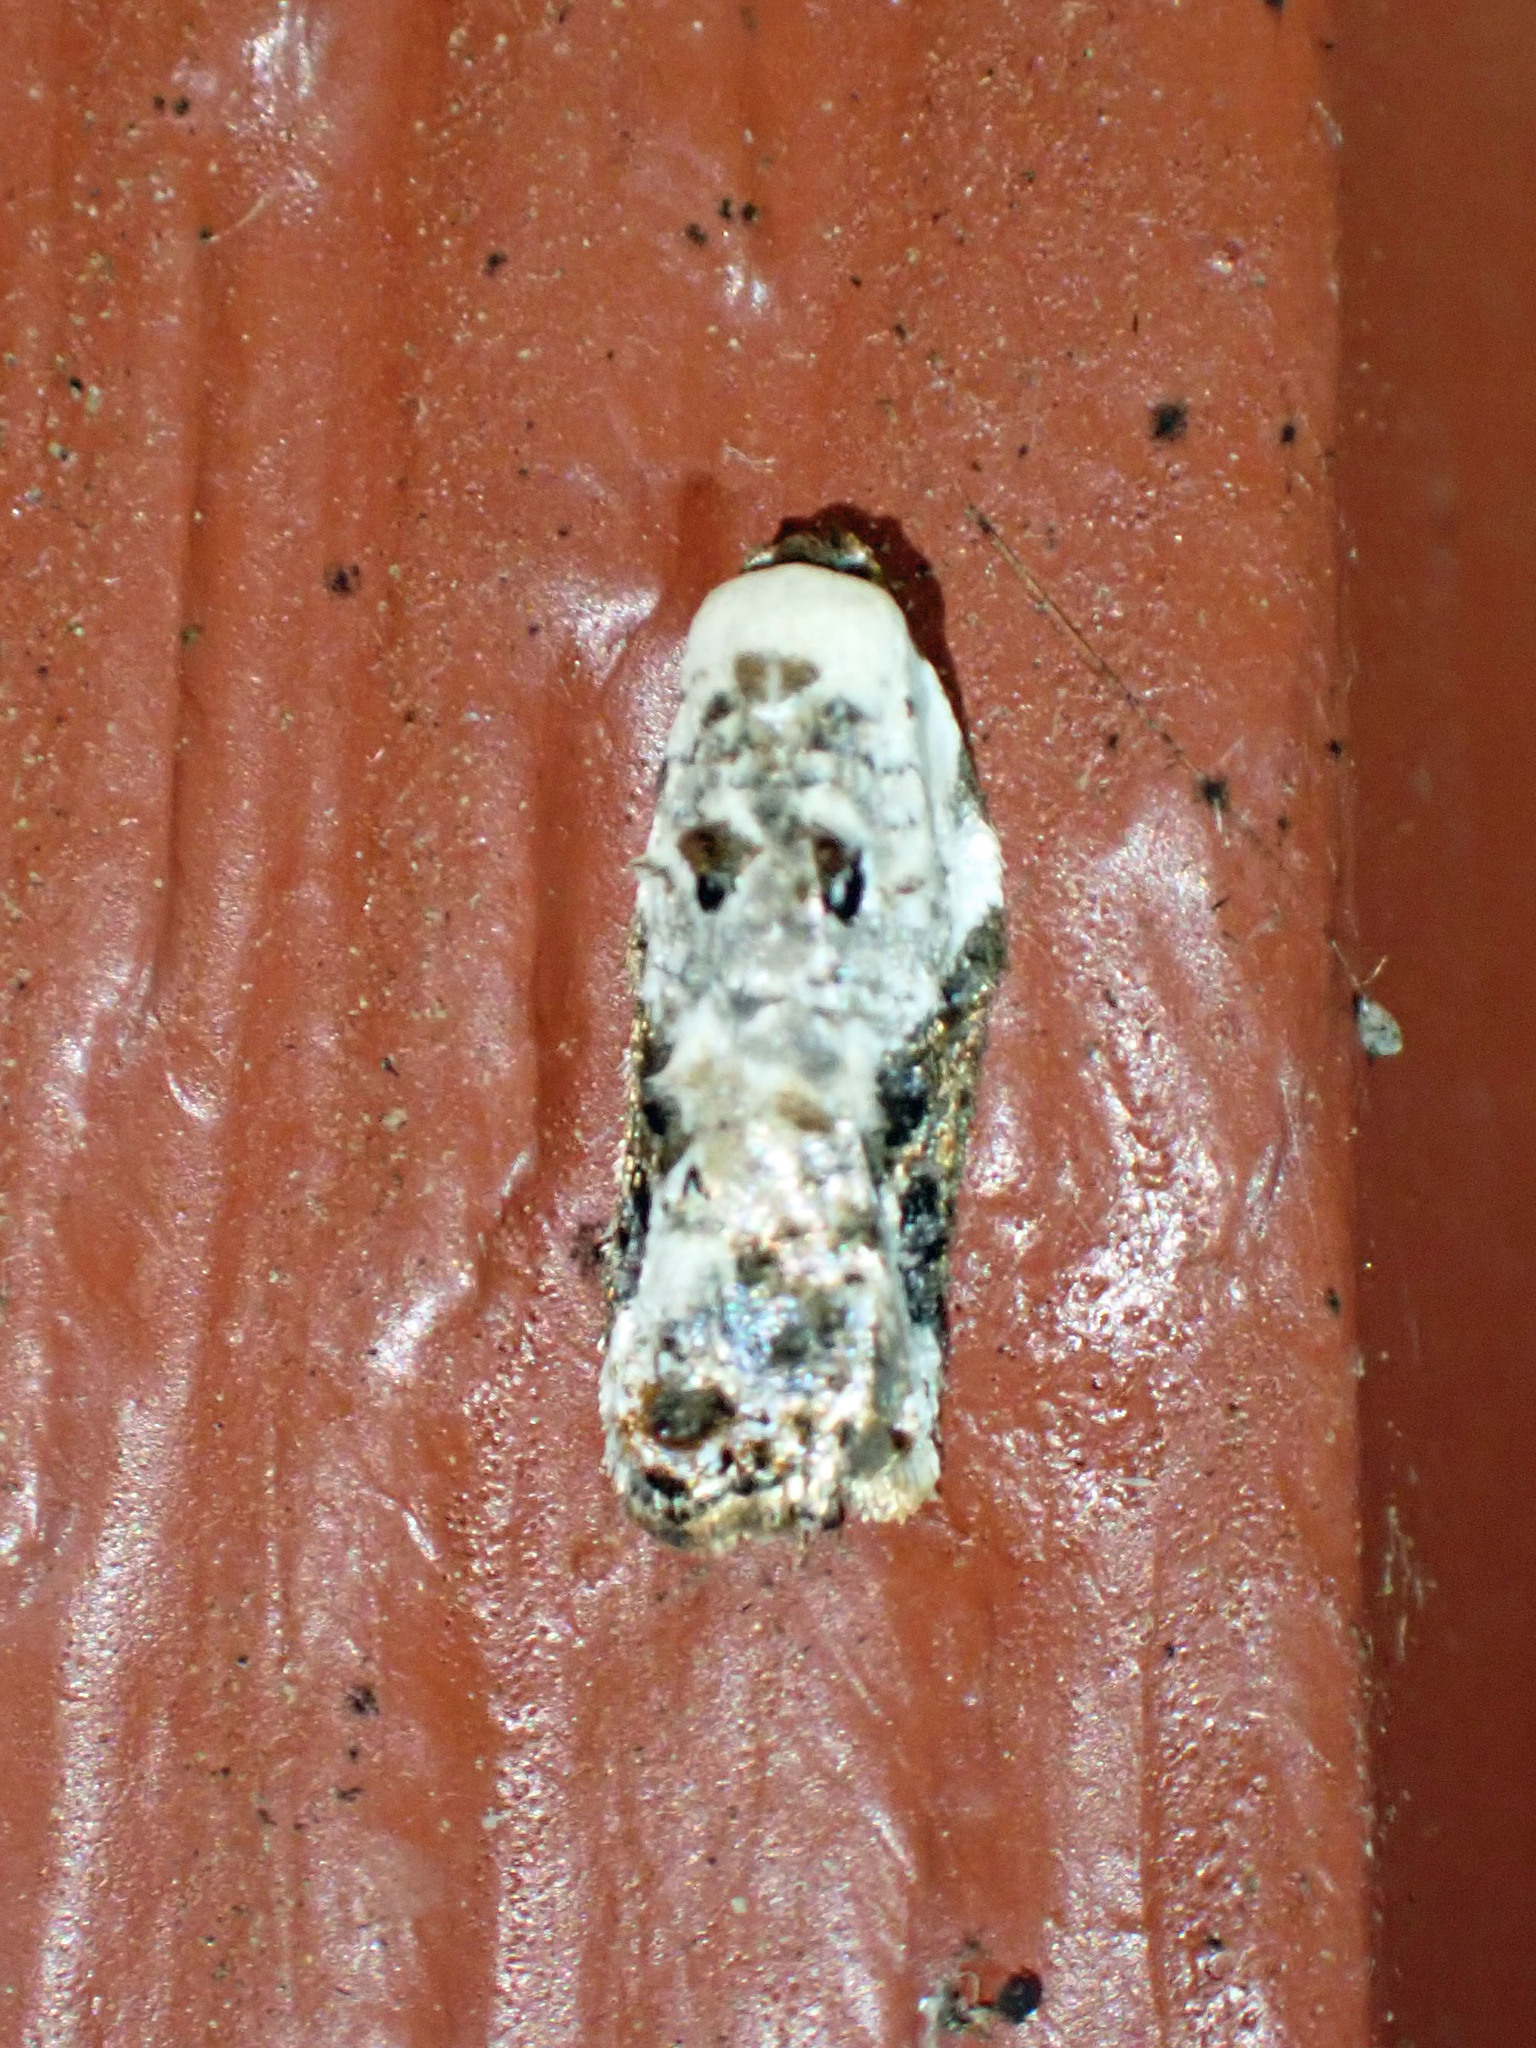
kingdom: Animalia
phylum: Arthropoda
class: Insecta
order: Lepidoptera
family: Tortricidae
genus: Acleris
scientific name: Acleris nivisellana
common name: Snowy-shouldered acleris moth
